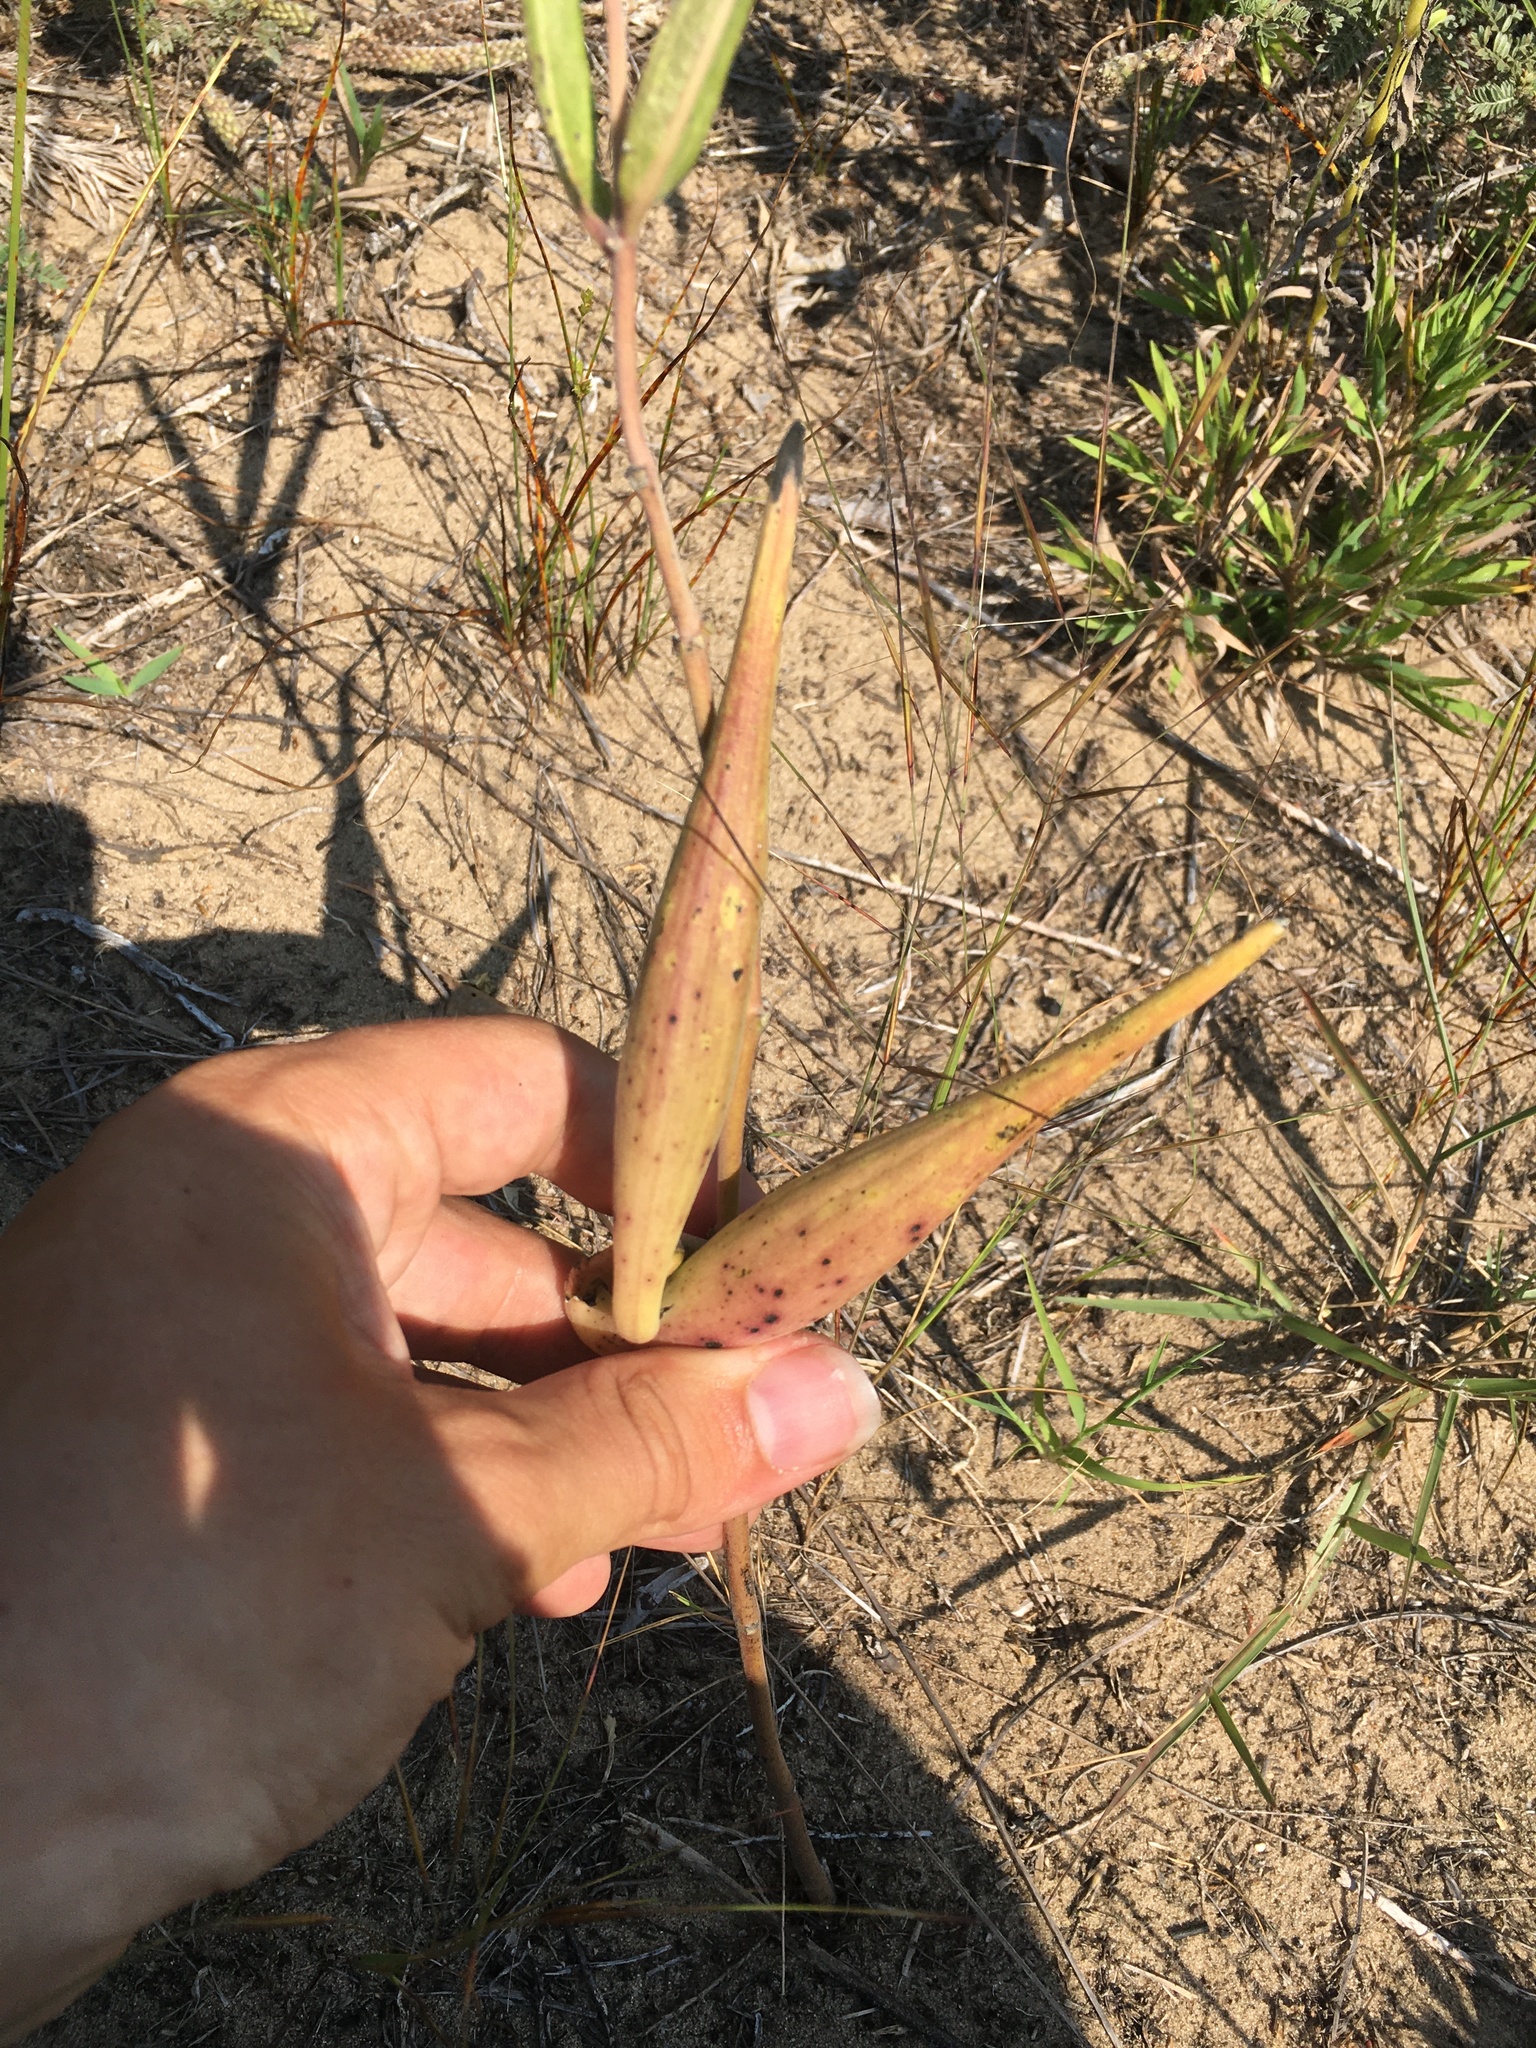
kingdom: Plantae
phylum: Tracheophyta
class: Magnoliopsida
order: Gentianales
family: Apocynaceae
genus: Asclepias
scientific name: Asclepias viridiflora
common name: Green comet milkweed
